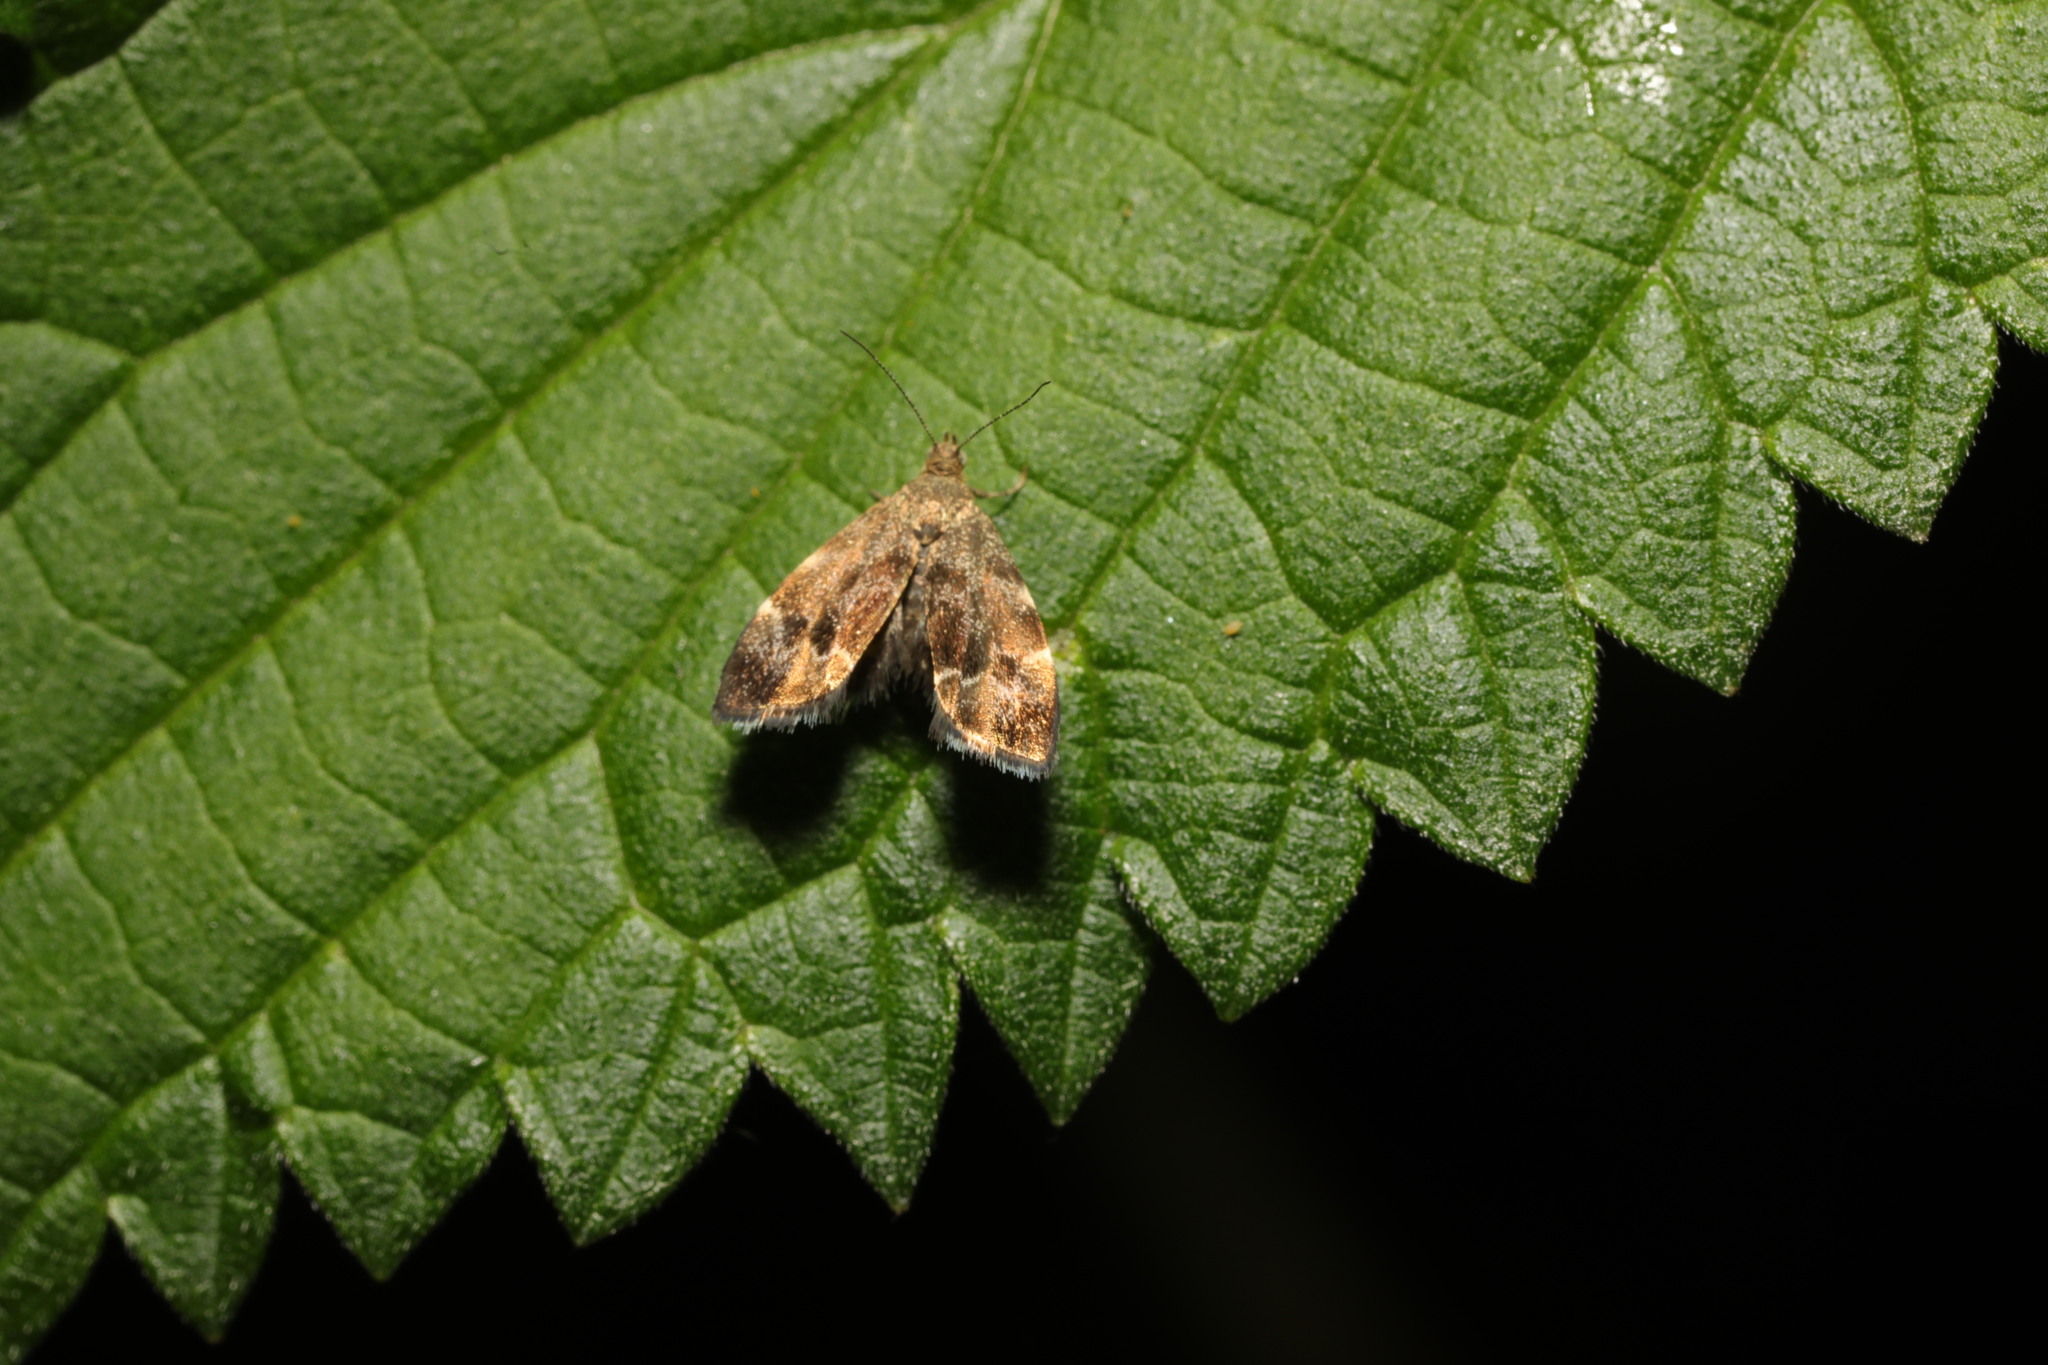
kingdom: Animalia
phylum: Arthropoda
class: Insecta
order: Lepidoptera
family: Choreutidae
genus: Anthophila
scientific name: Anthophila fabriciana
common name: Nettle-tap
